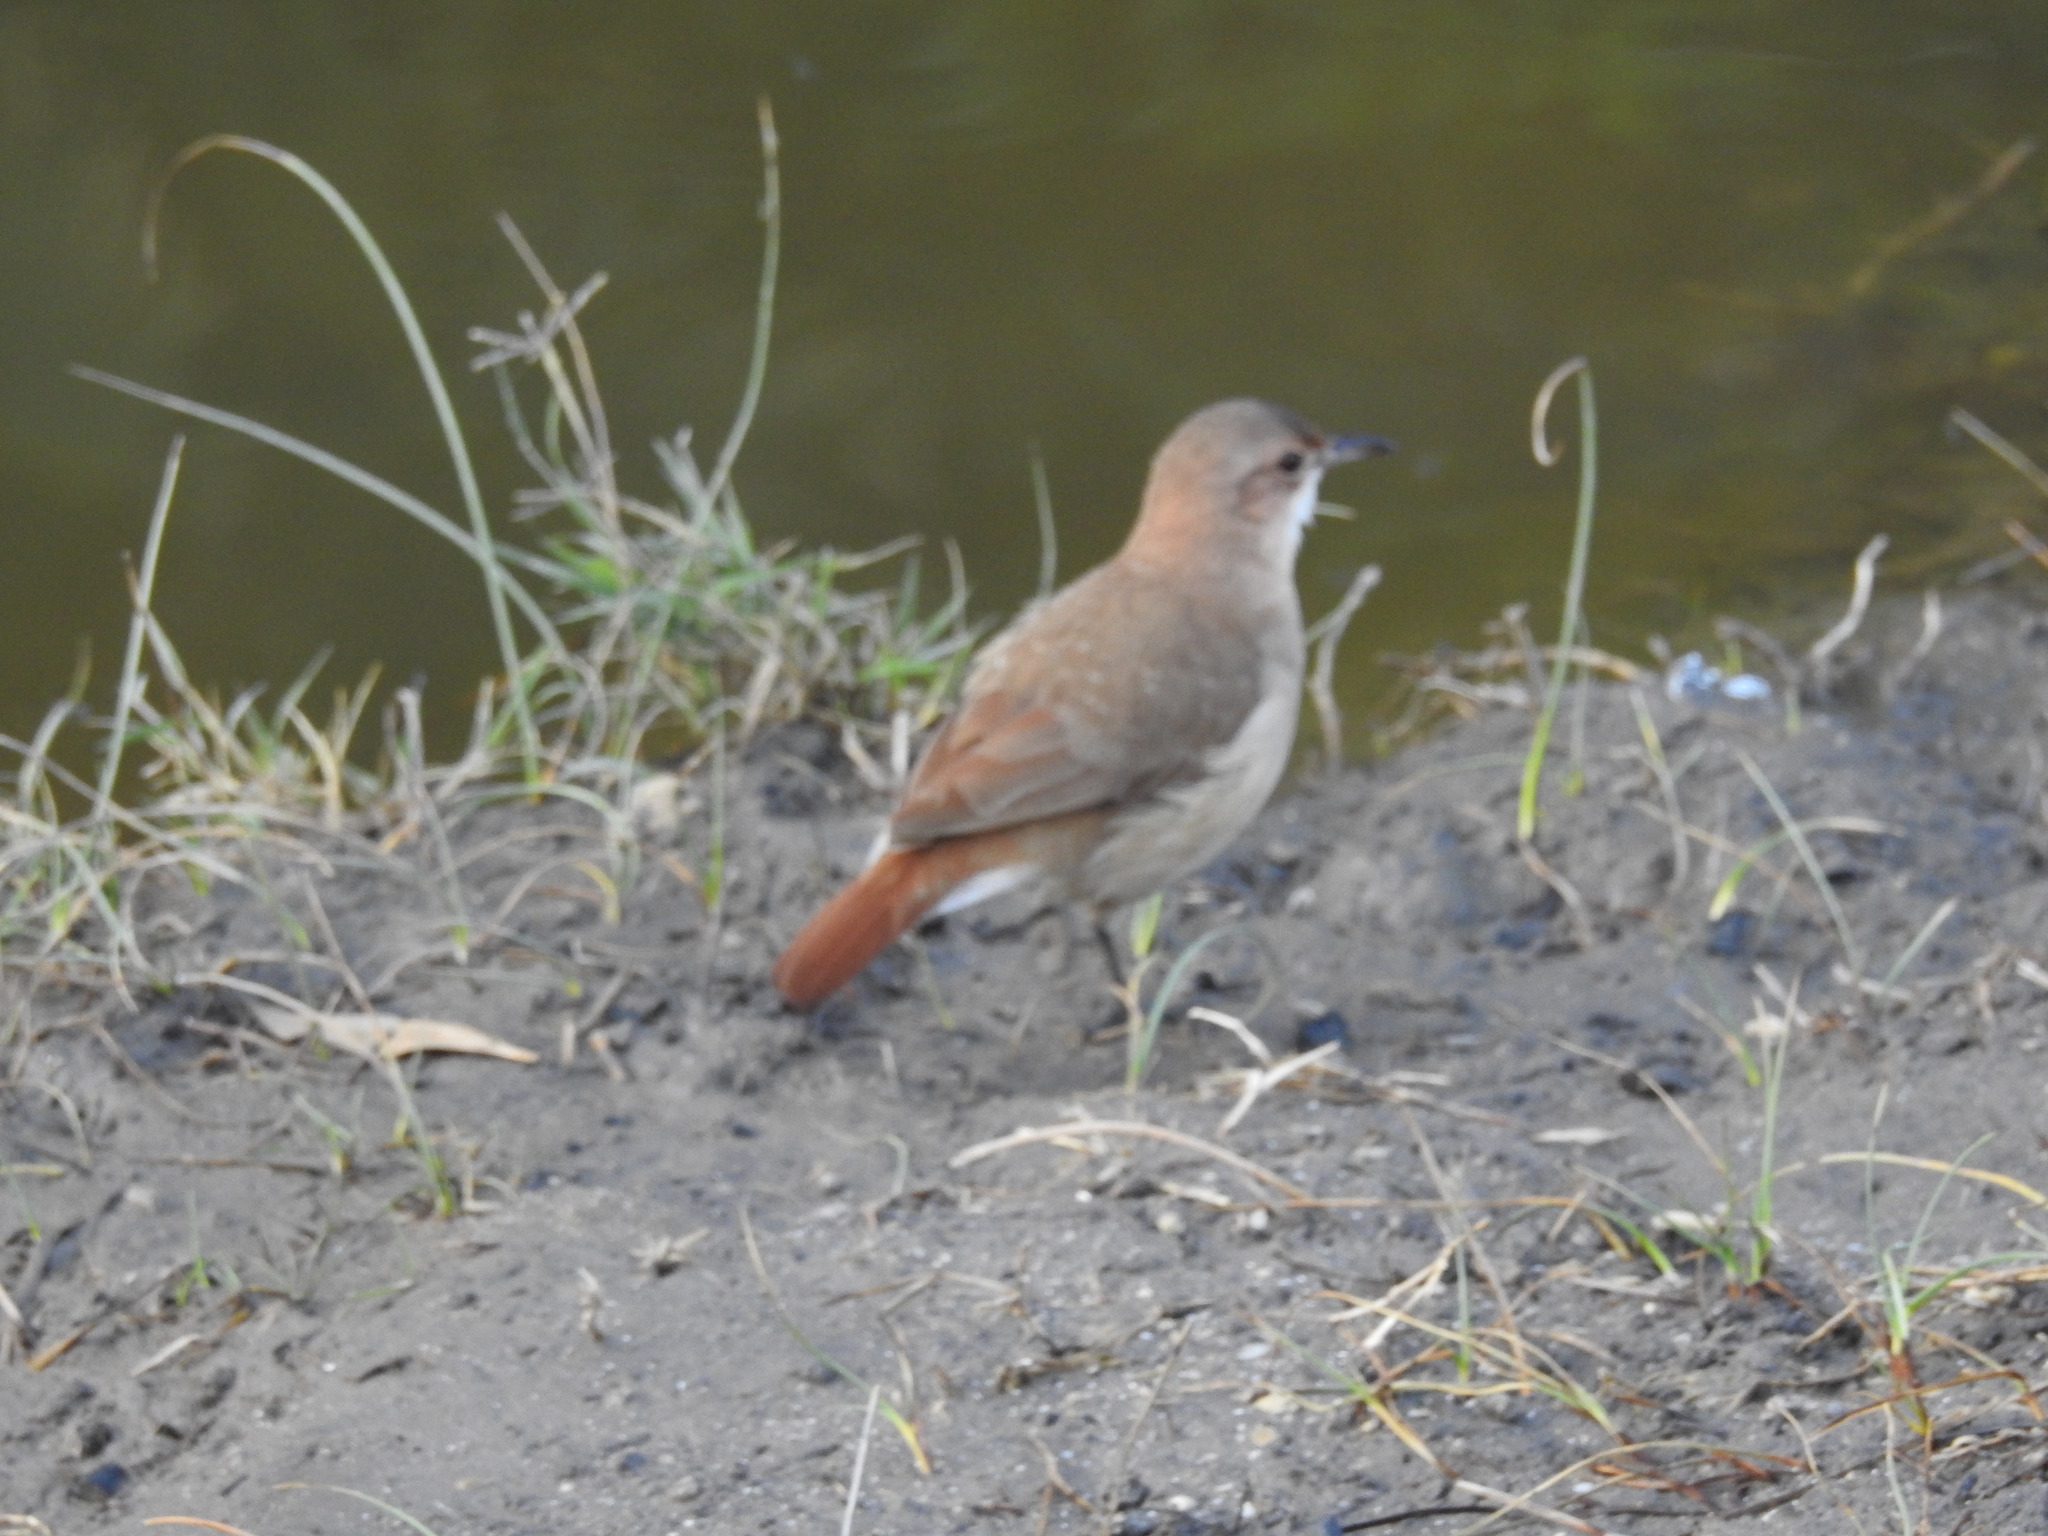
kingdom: Animalia
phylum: Chordata
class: Aves
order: Passeriformes
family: Furnariidae
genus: Furnarius
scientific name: Furnarius rufus
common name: Rufous hornero
